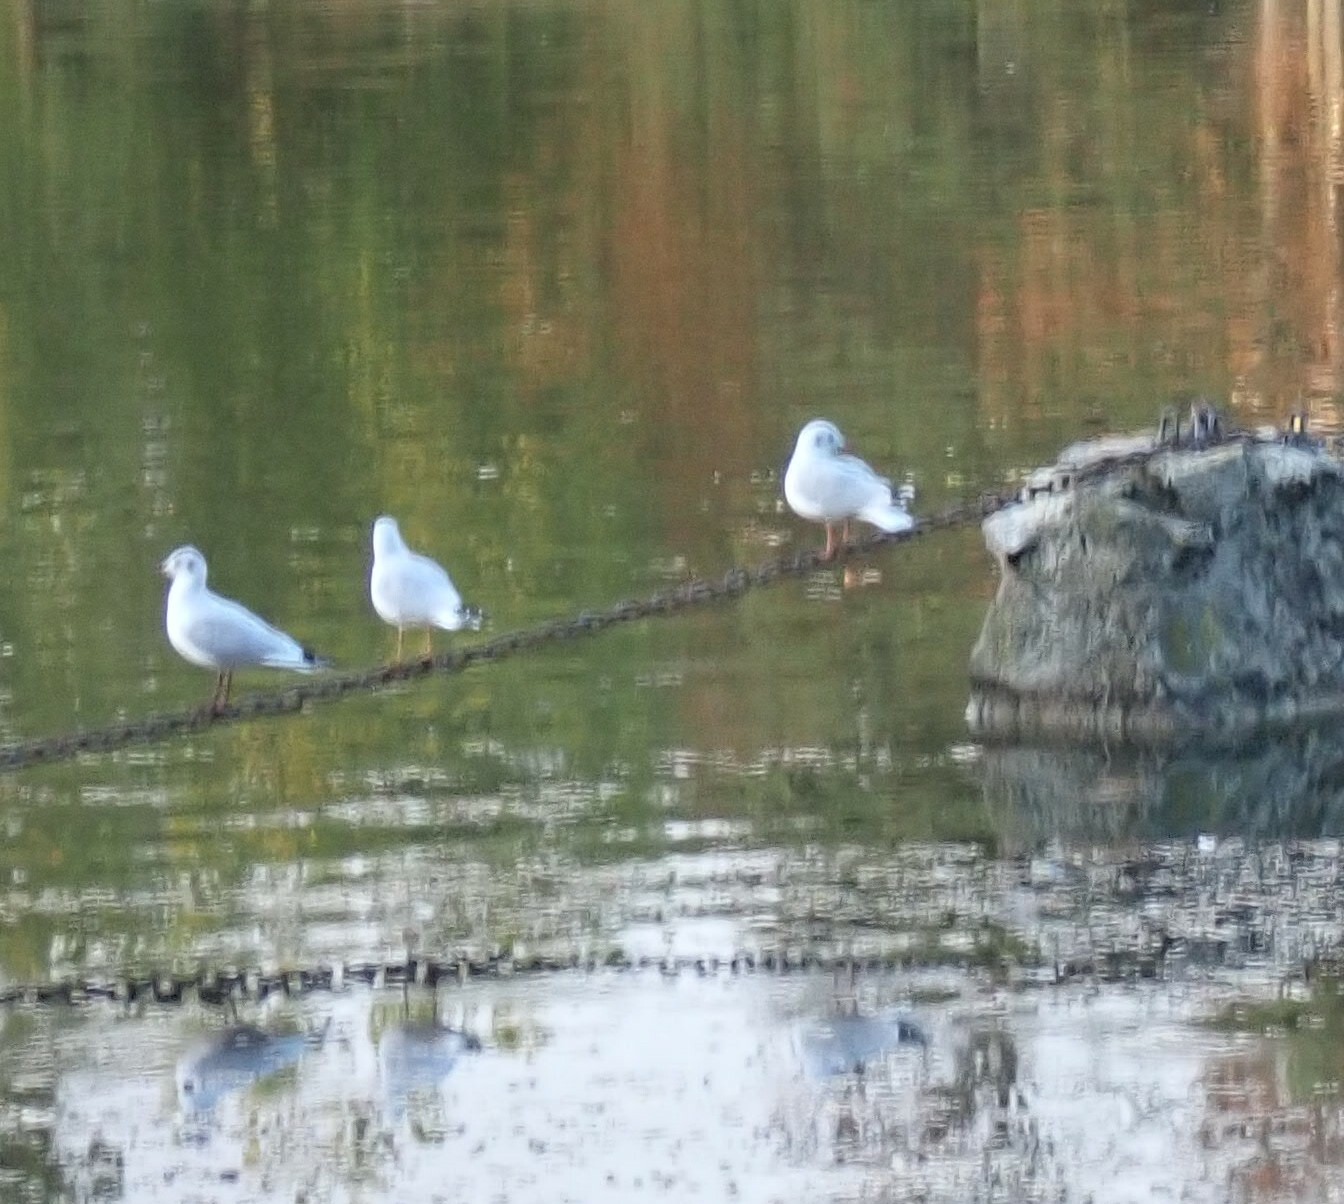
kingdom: Animalia
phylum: Chordata
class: Aves
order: Charadriiformes
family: Laridae
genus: Chroicocephalus
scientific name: Chroicocephalus ridibundus
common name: Black-headed gull
